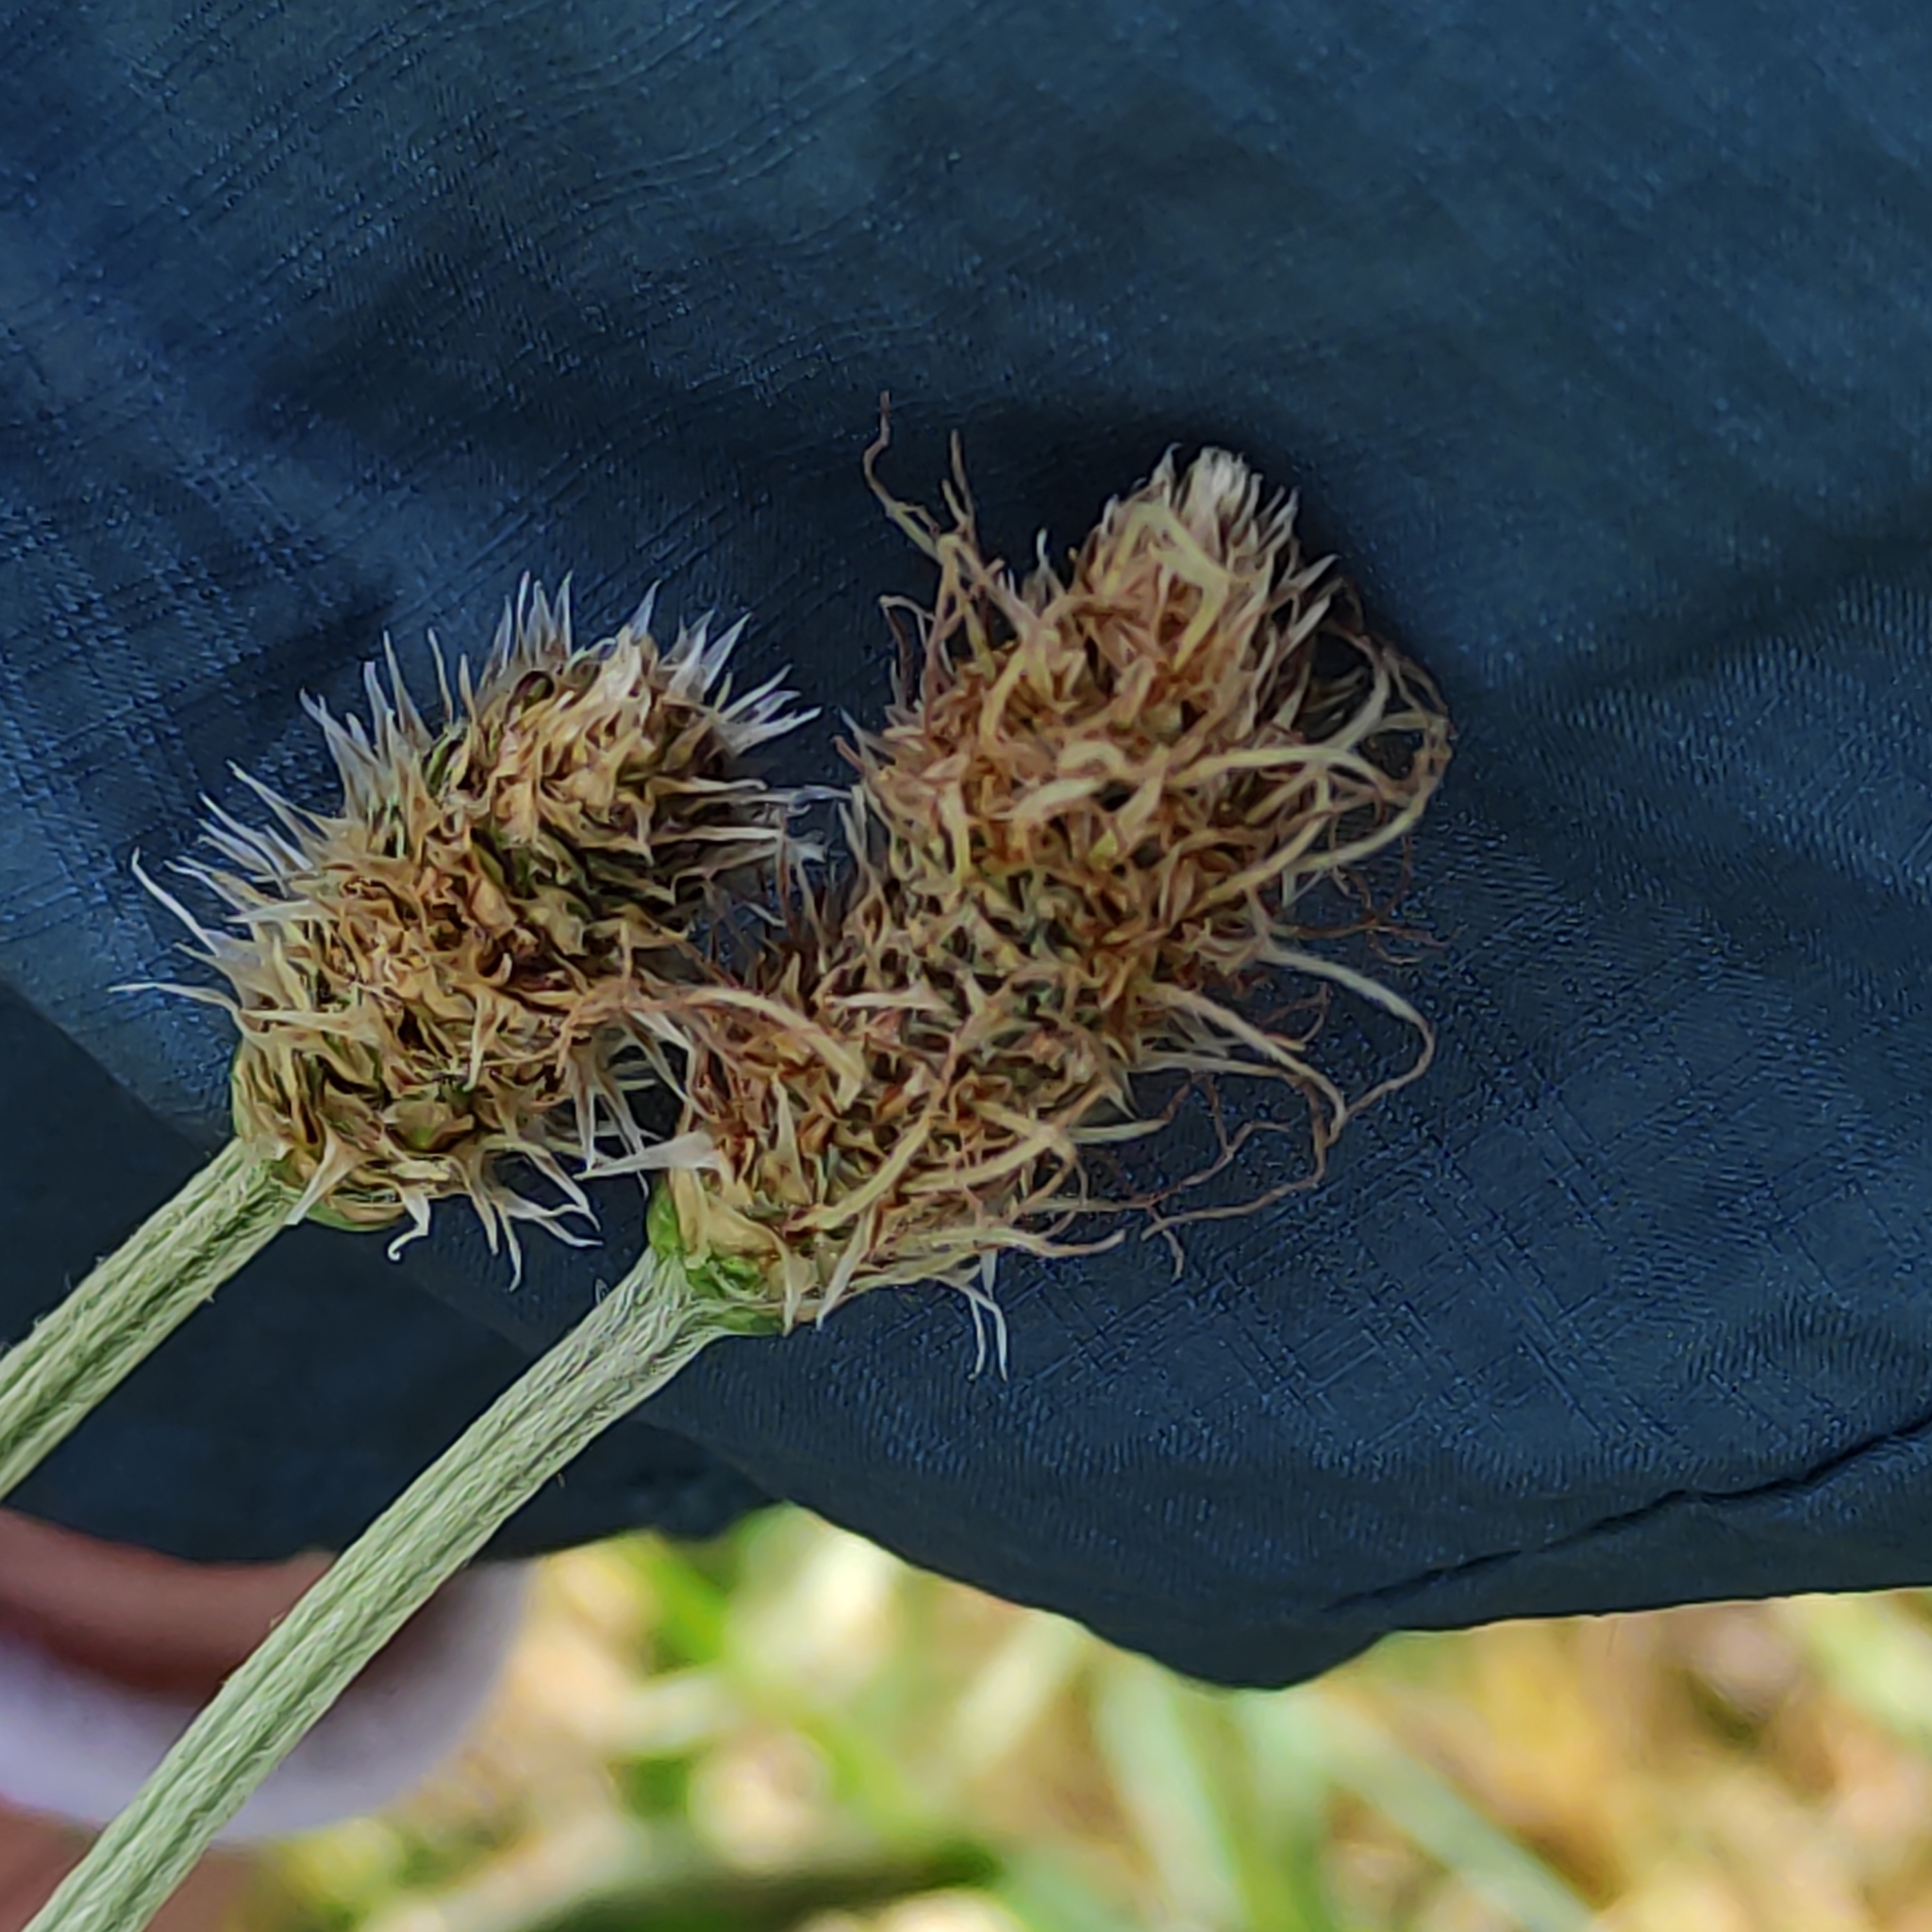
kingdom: Plantae
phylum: Tracheophyta
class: Magnoliopsida
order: Lamiales
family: Plantaginaceae
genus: Plantago
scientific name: Plantago lanceolata
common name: Ribwort plantain
